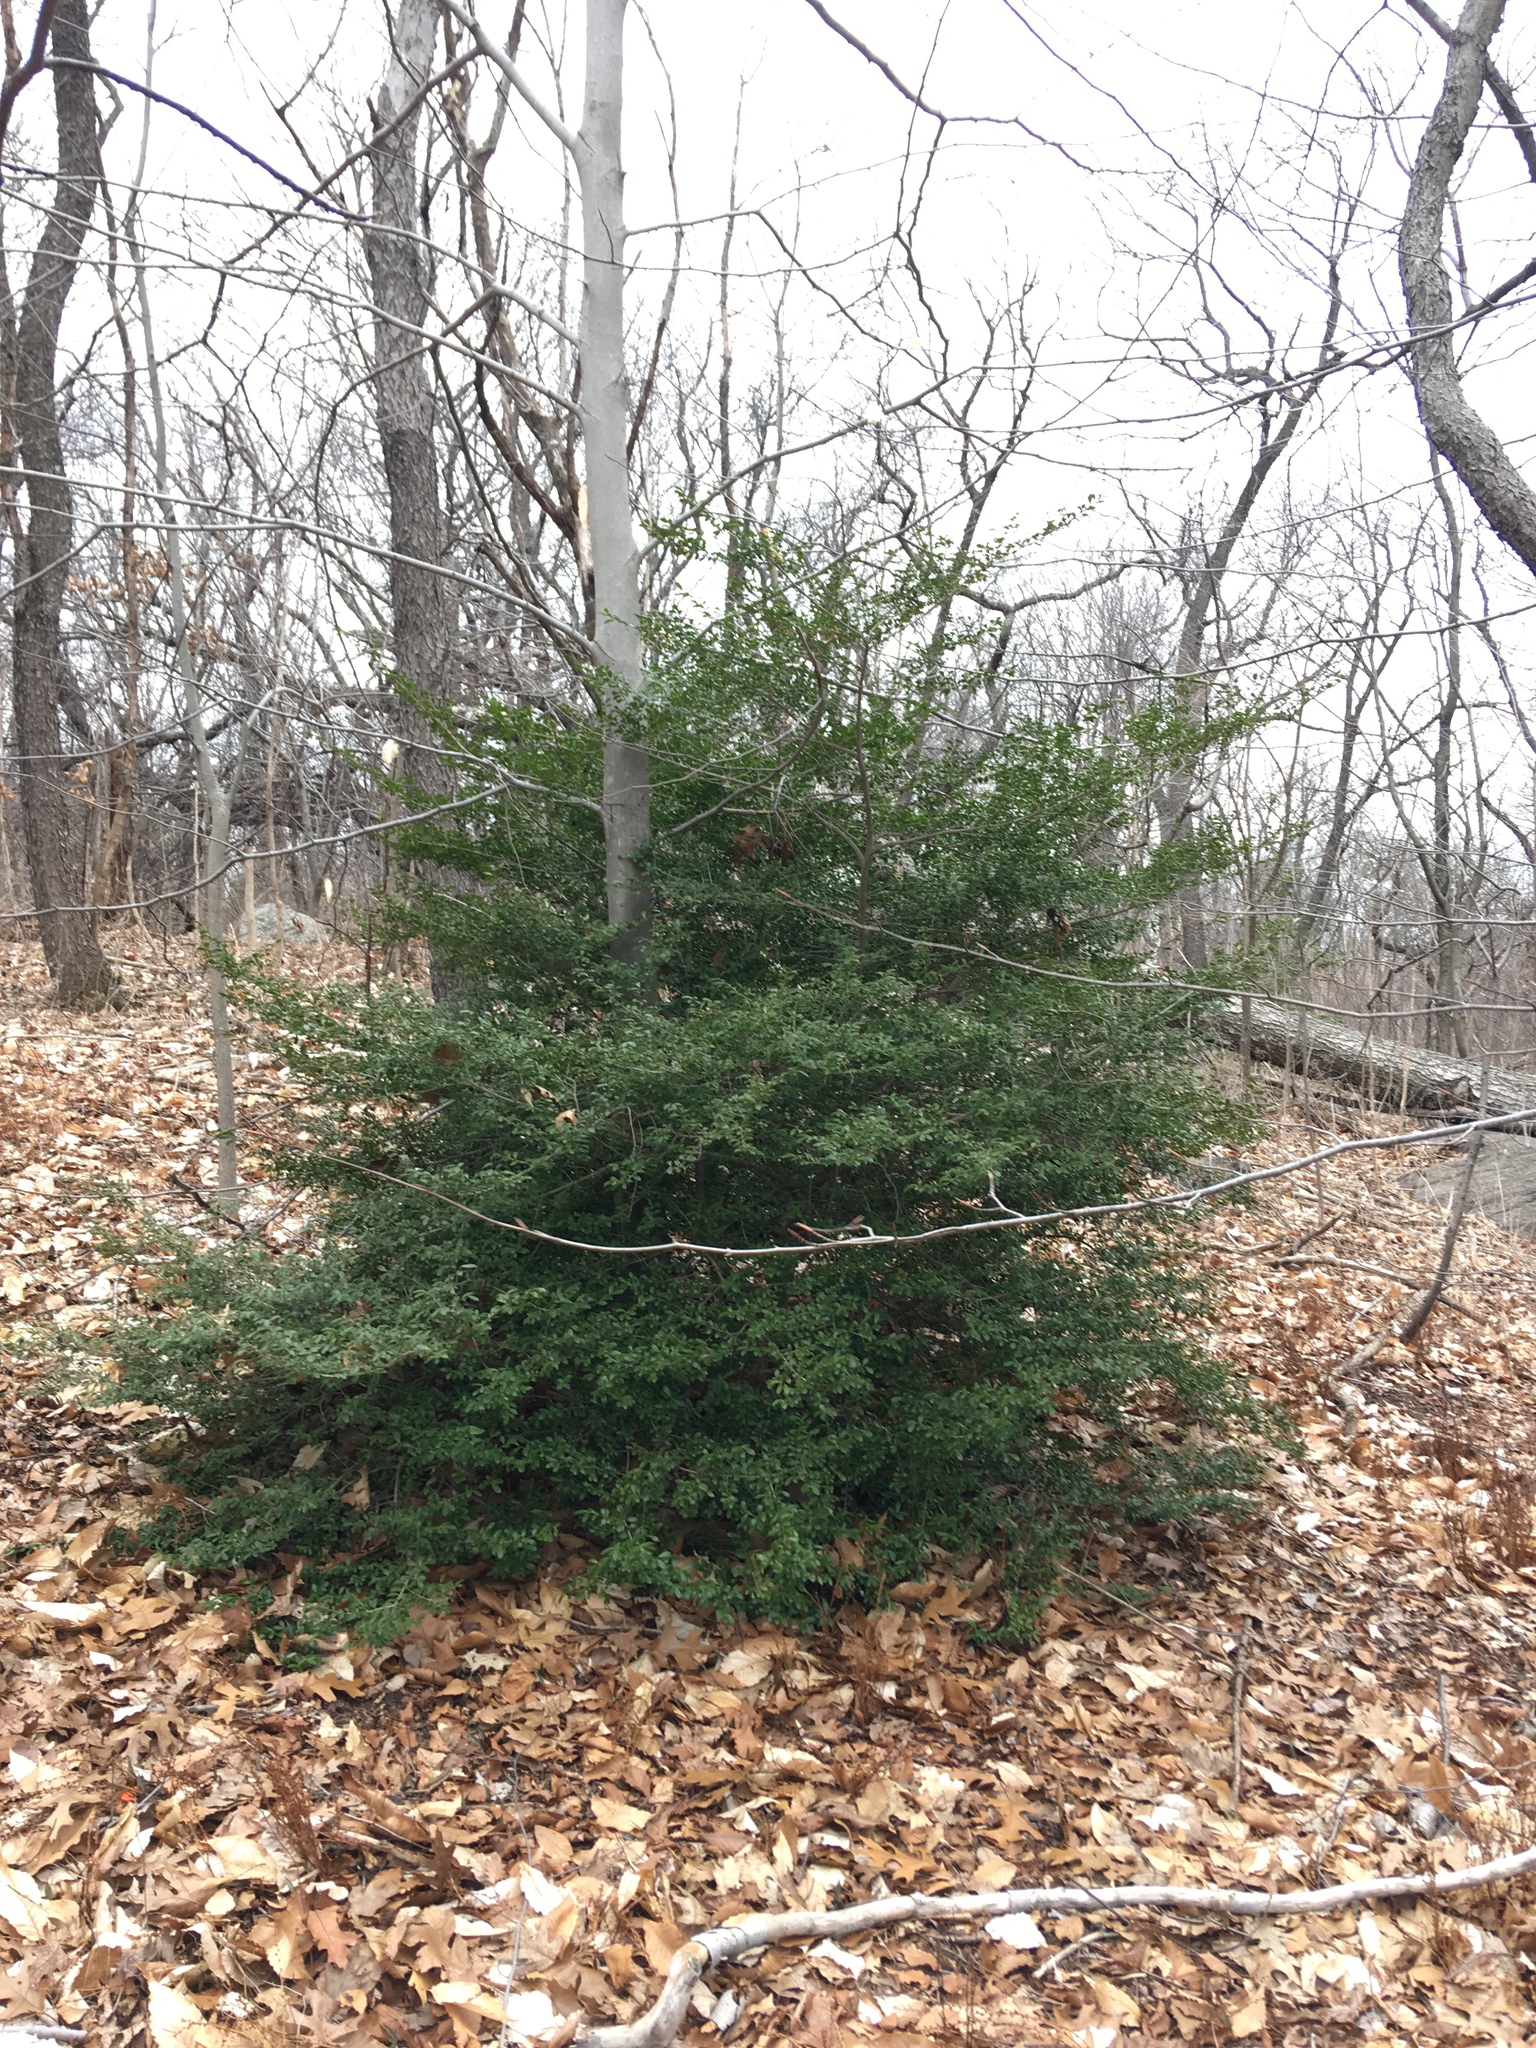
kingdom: Plantae
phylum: Tracheophyta
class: Magnoliopsida
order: Aquifoliales
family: Aquifoliaceae
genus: Ilex
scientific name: Ilex crenata
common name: Japanese holly
